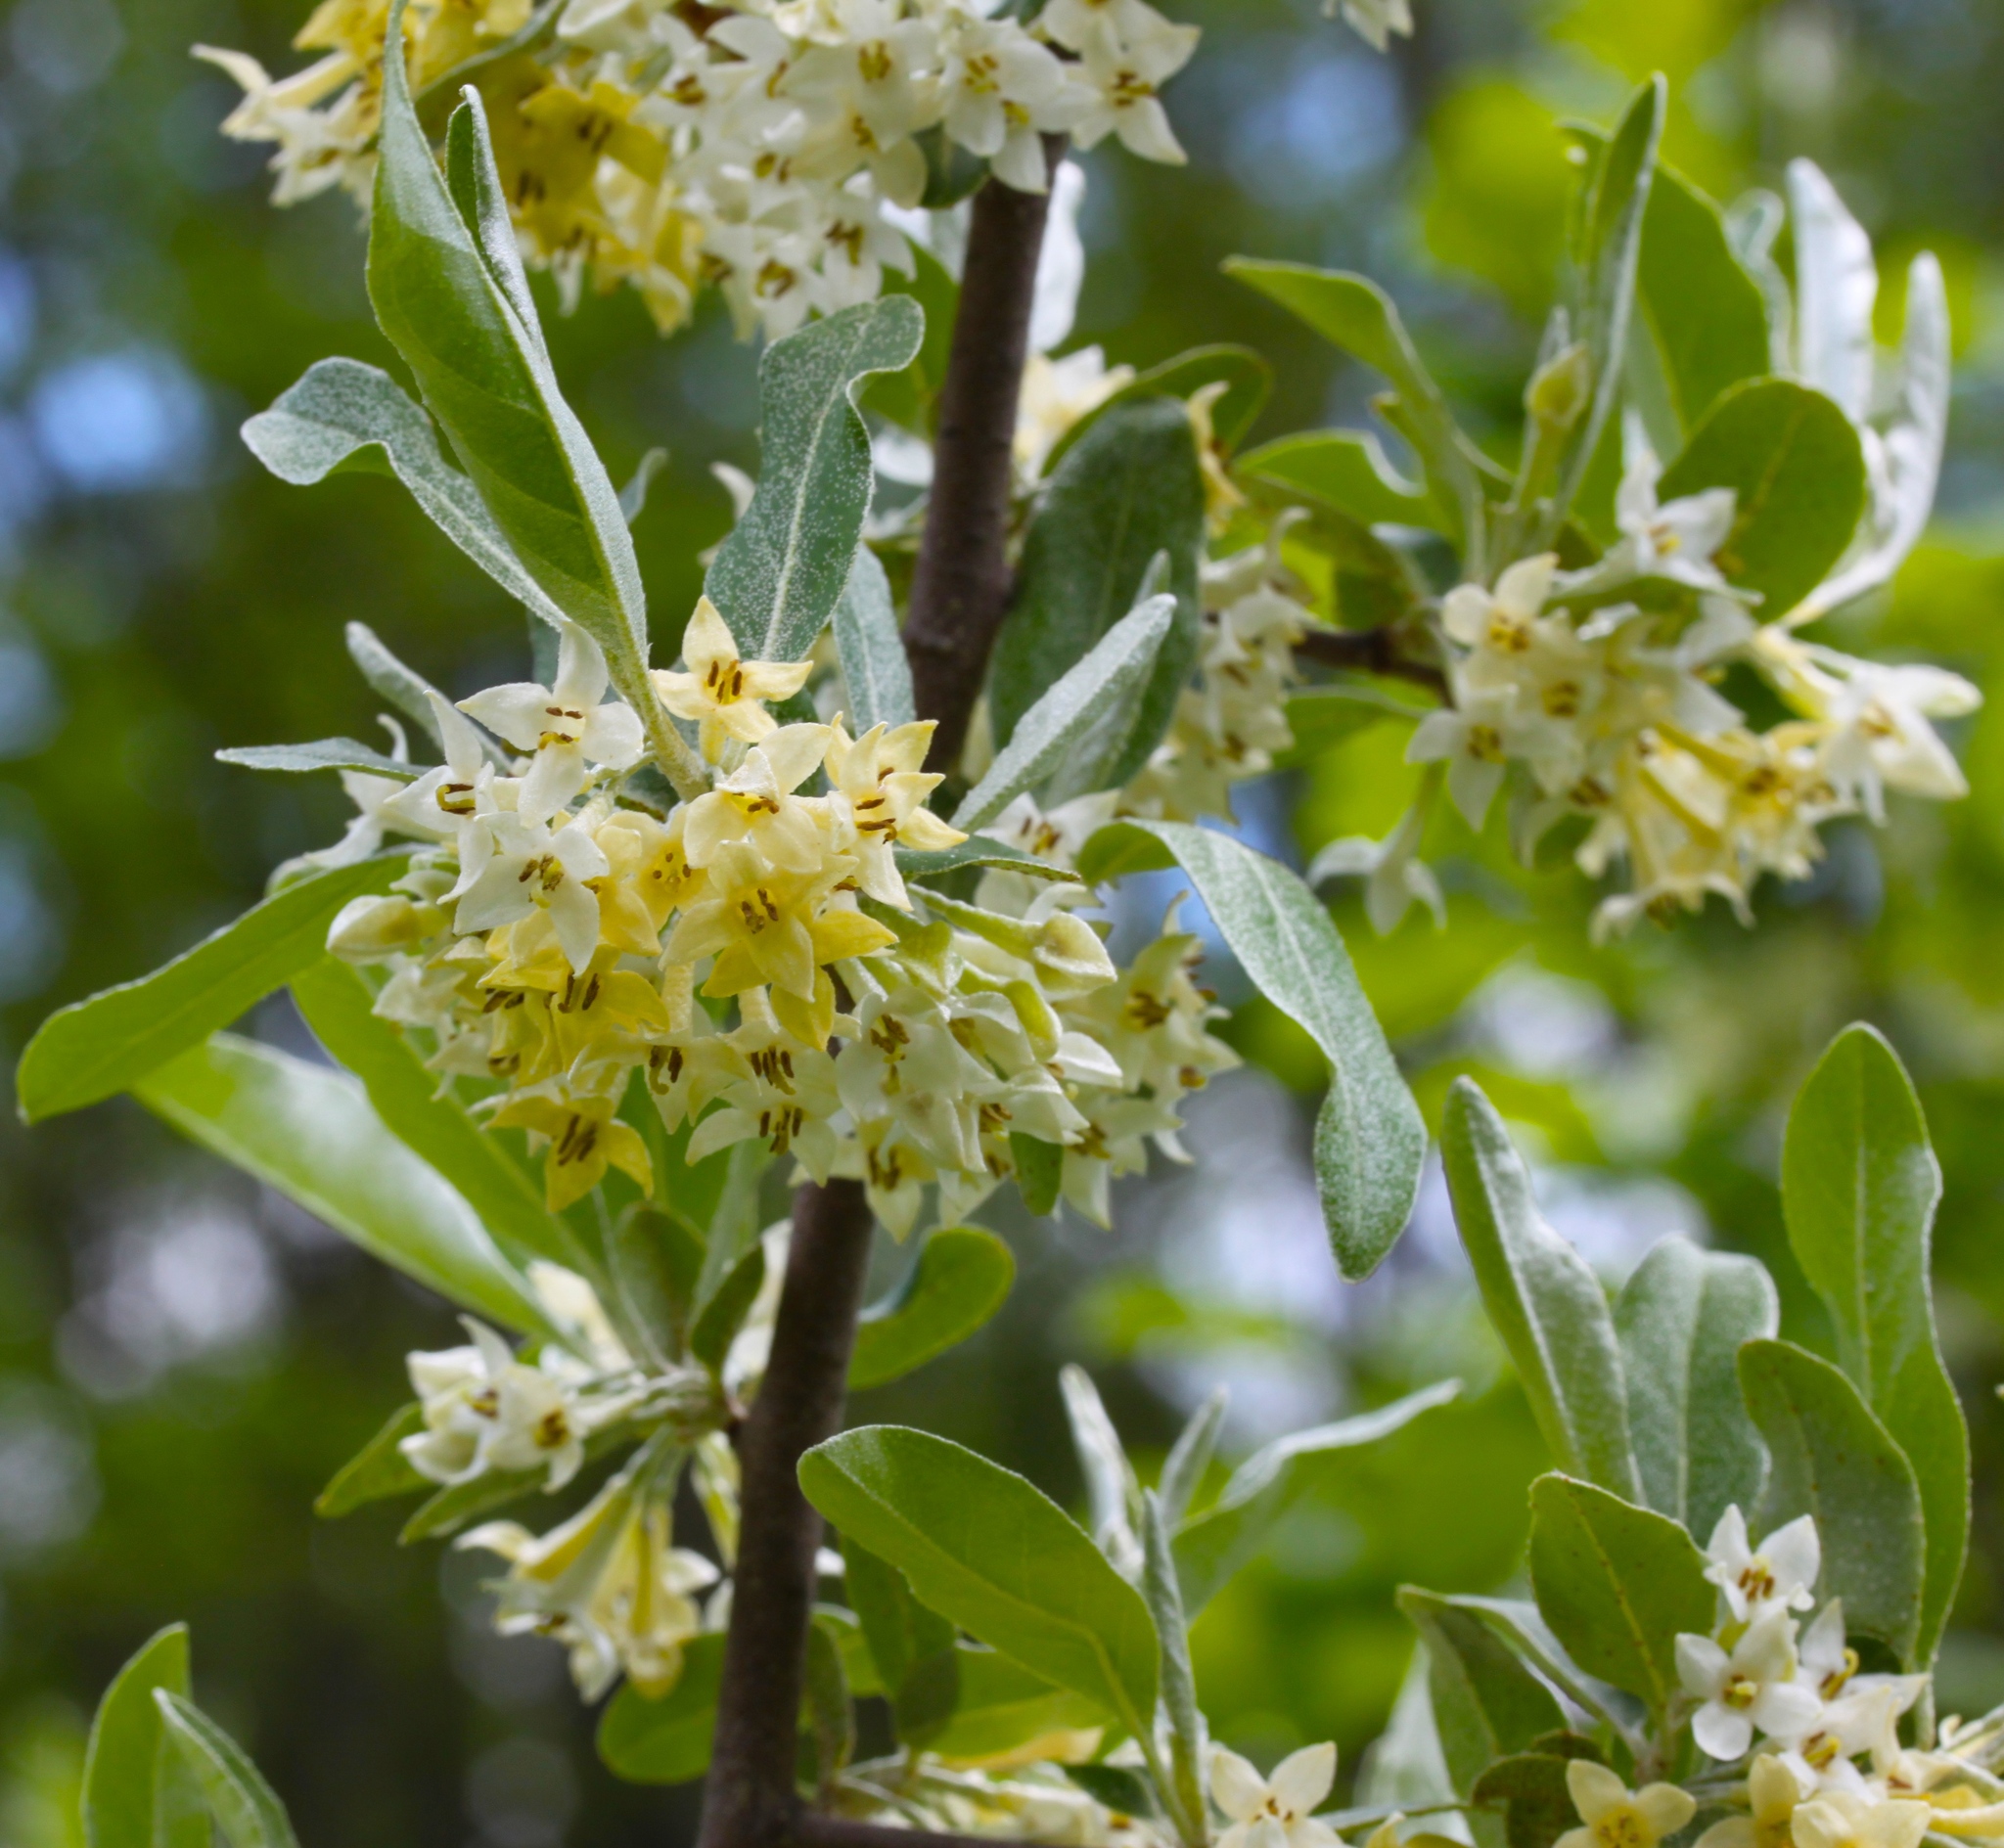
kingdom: Plantae
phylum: Tracheophyta
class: Magnoliopsida
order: Rosales
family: Elaeagnaceae
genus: Elaeagnus
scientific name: Elaeagnus umbellata
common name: Autumn olive
